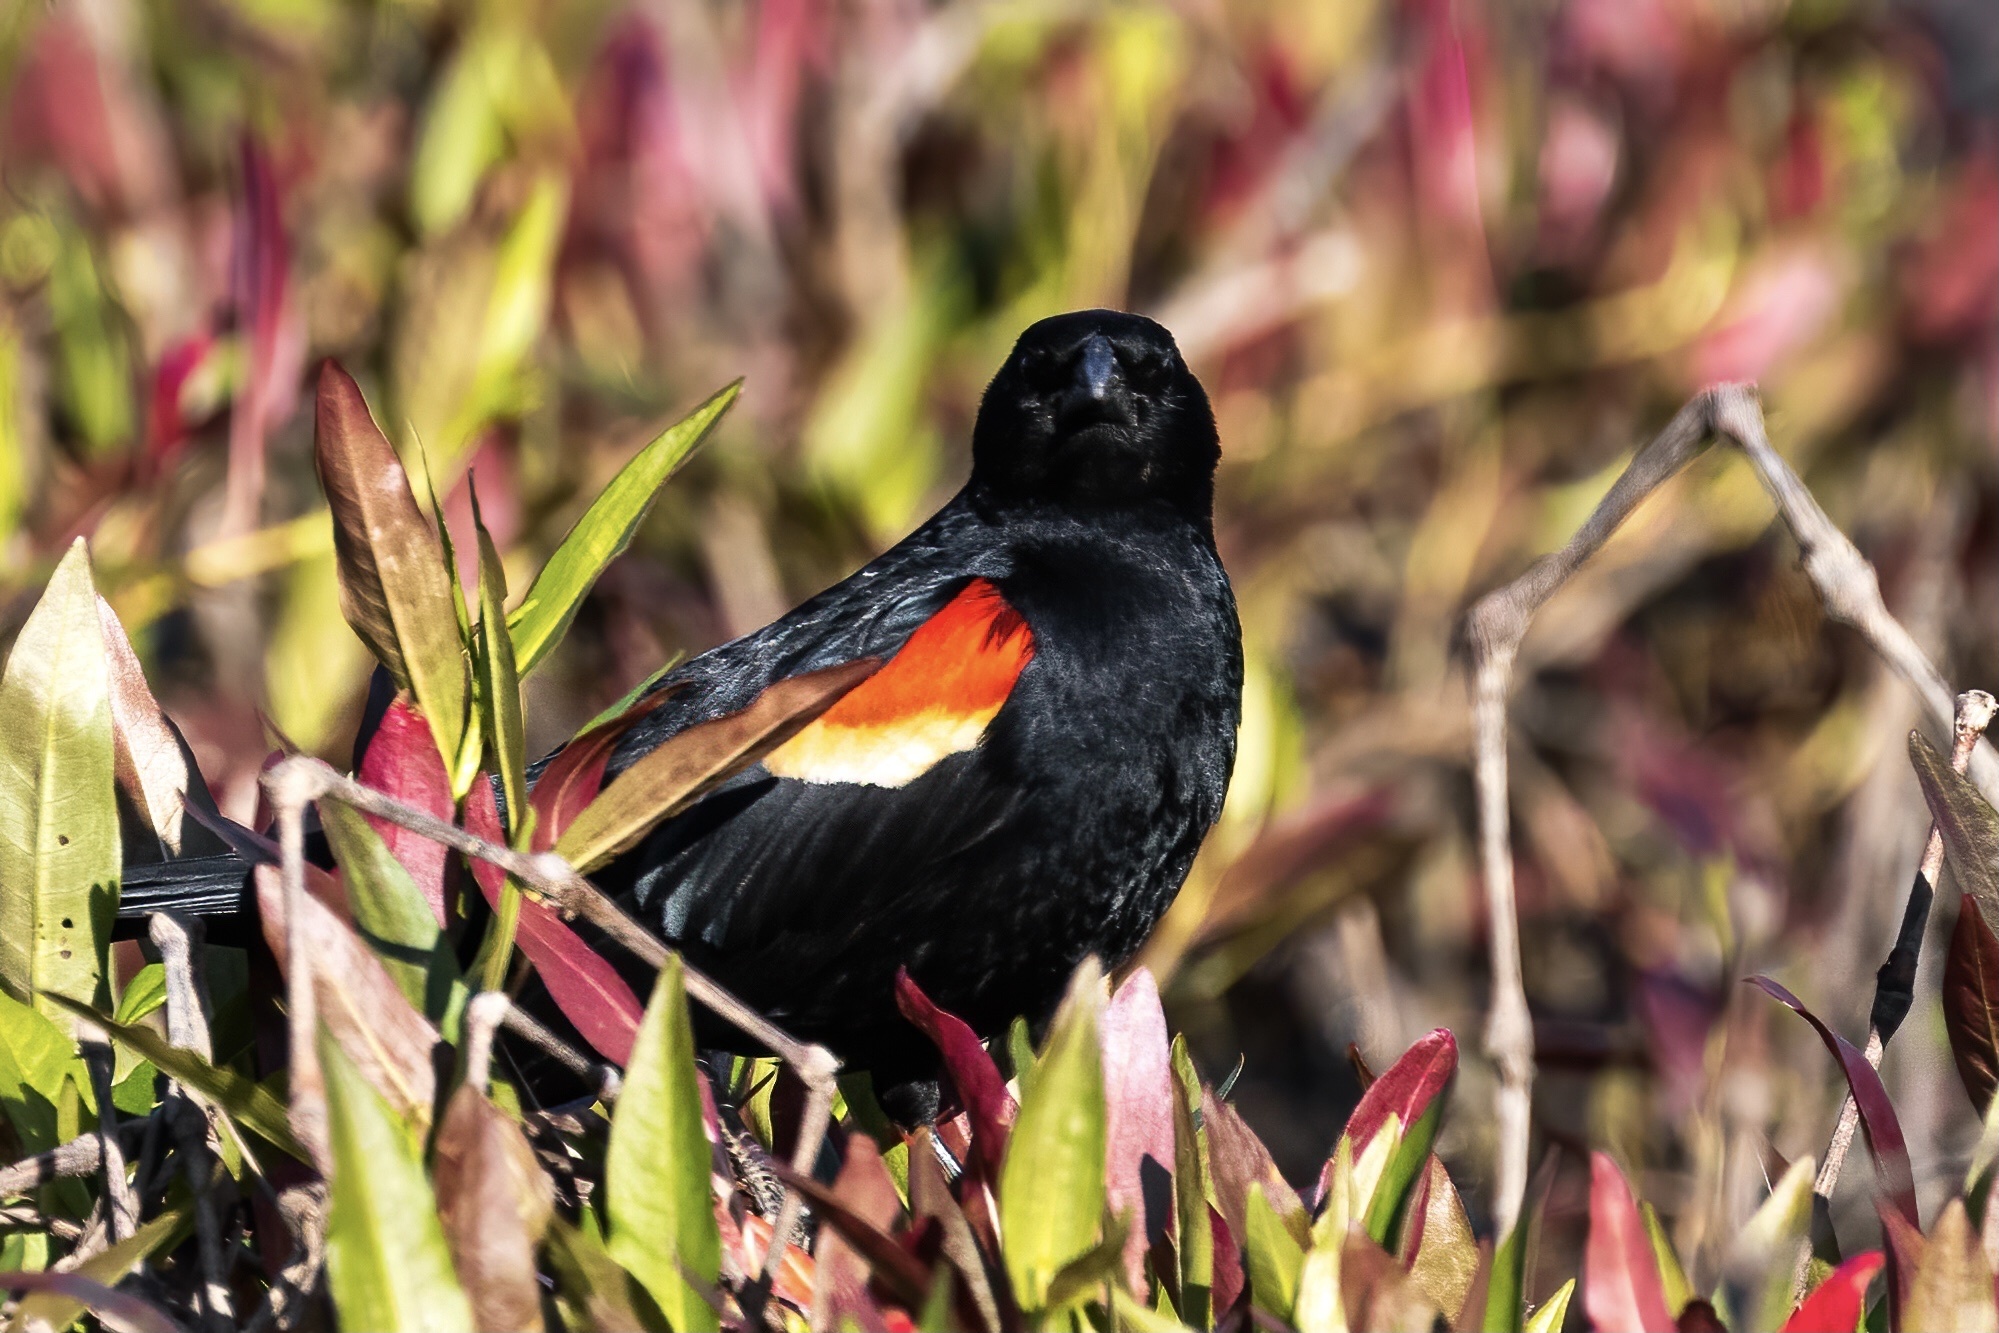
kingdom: Animalia
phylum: Chordata
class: Aves
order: Passeriformes
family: Icteridae
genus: Agelaius
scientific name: Agelaius phoeniceus
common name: Red-winged blackbird
